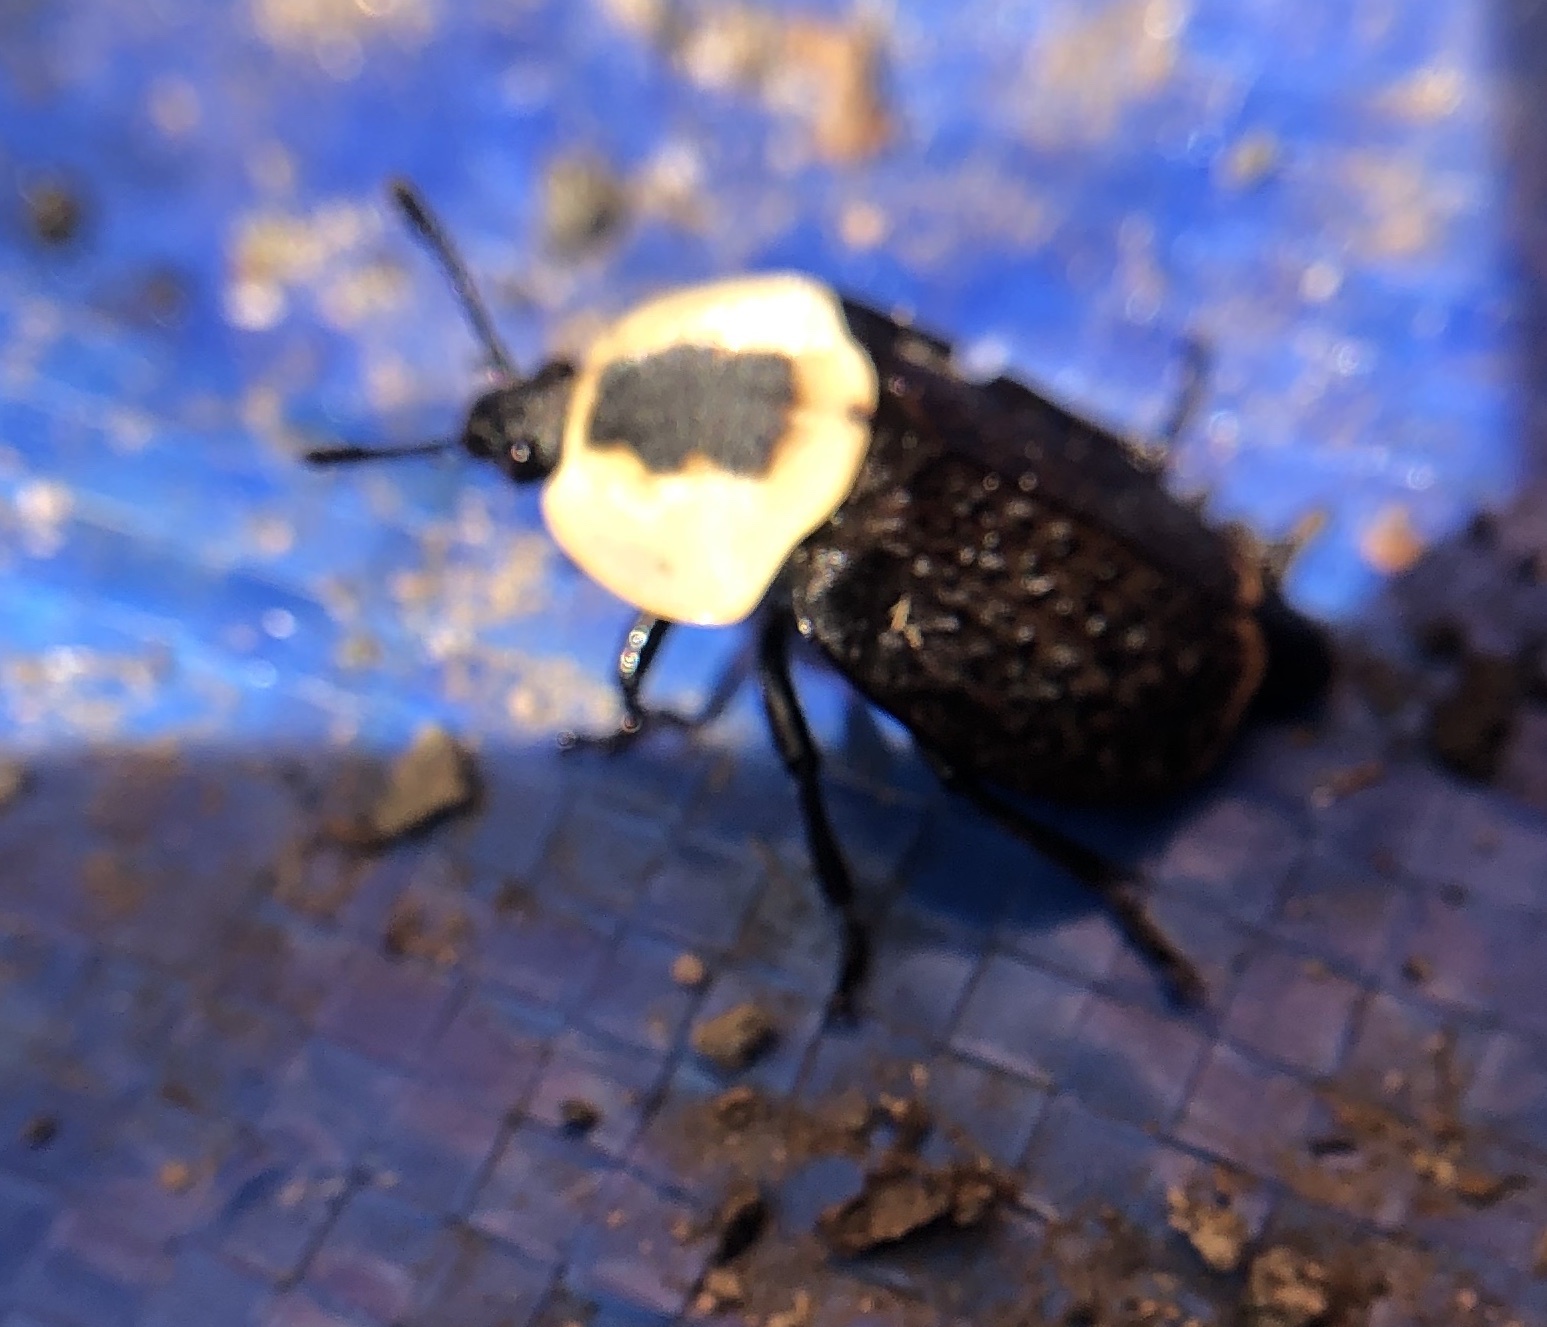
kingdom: Animalia
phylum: Arthropoda
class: Insecta
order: Coleoptera
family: Staphylinidae
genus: Necrophila
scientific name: Necrophila americana
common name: American carrion beetle
